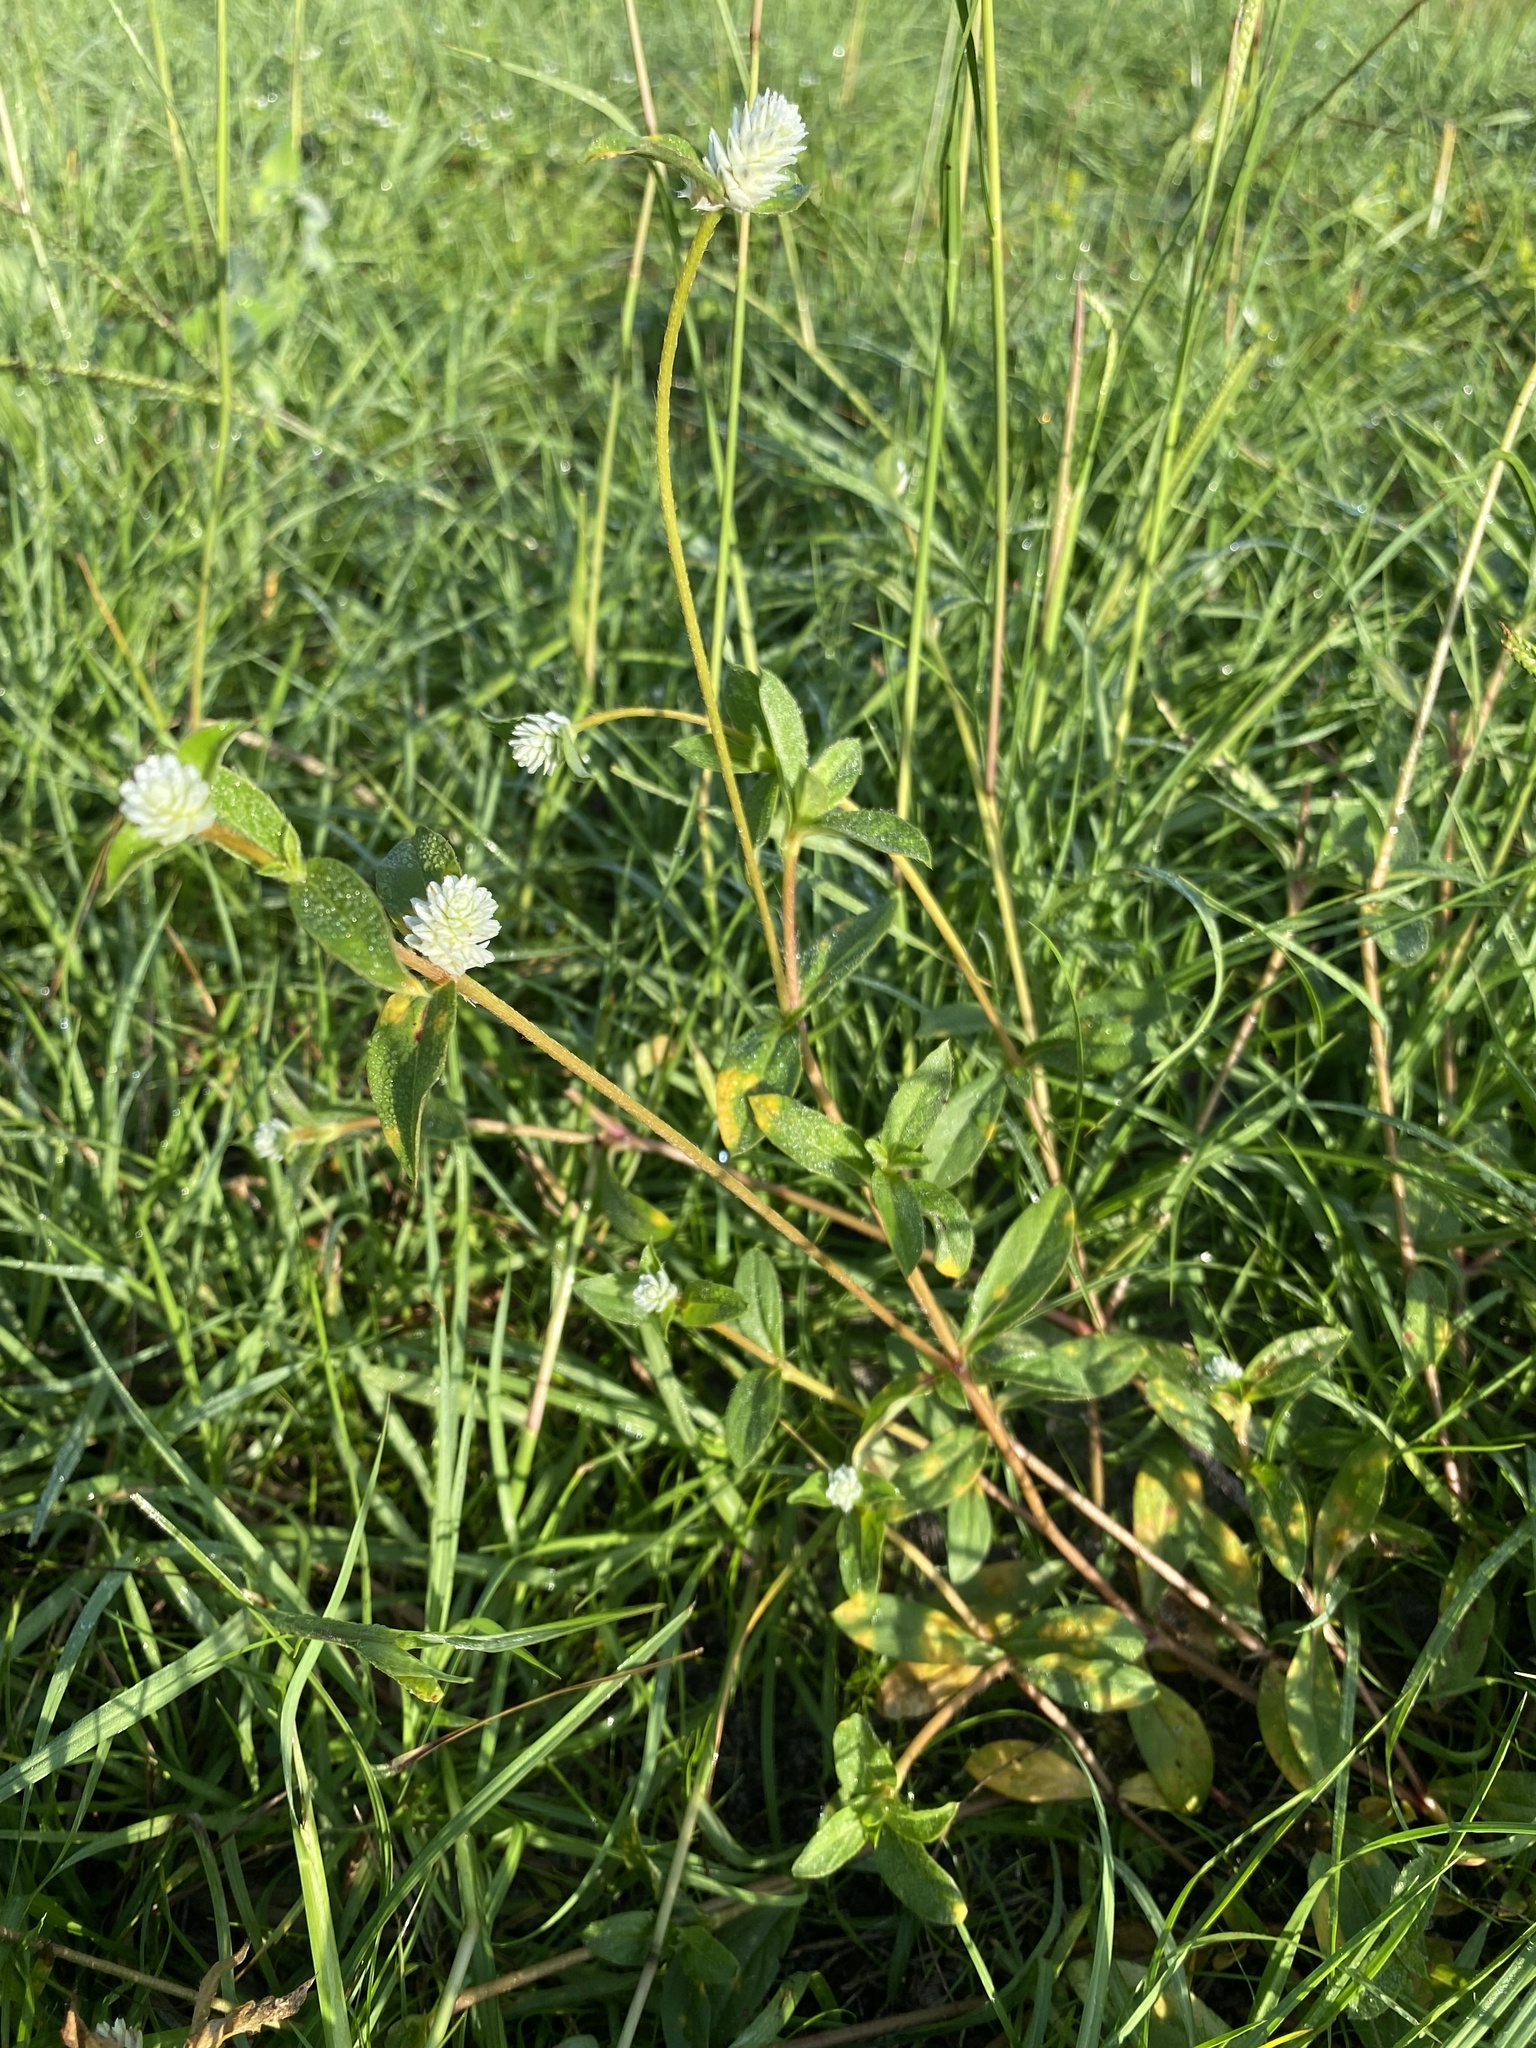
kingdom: Plantae
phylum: Tracheophyta
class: Magnoliopsida
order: Caryophyllales
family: Amaranthaceae
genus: Gomphrena
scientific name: Gomphrena serrata
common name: Arrasa con todo
